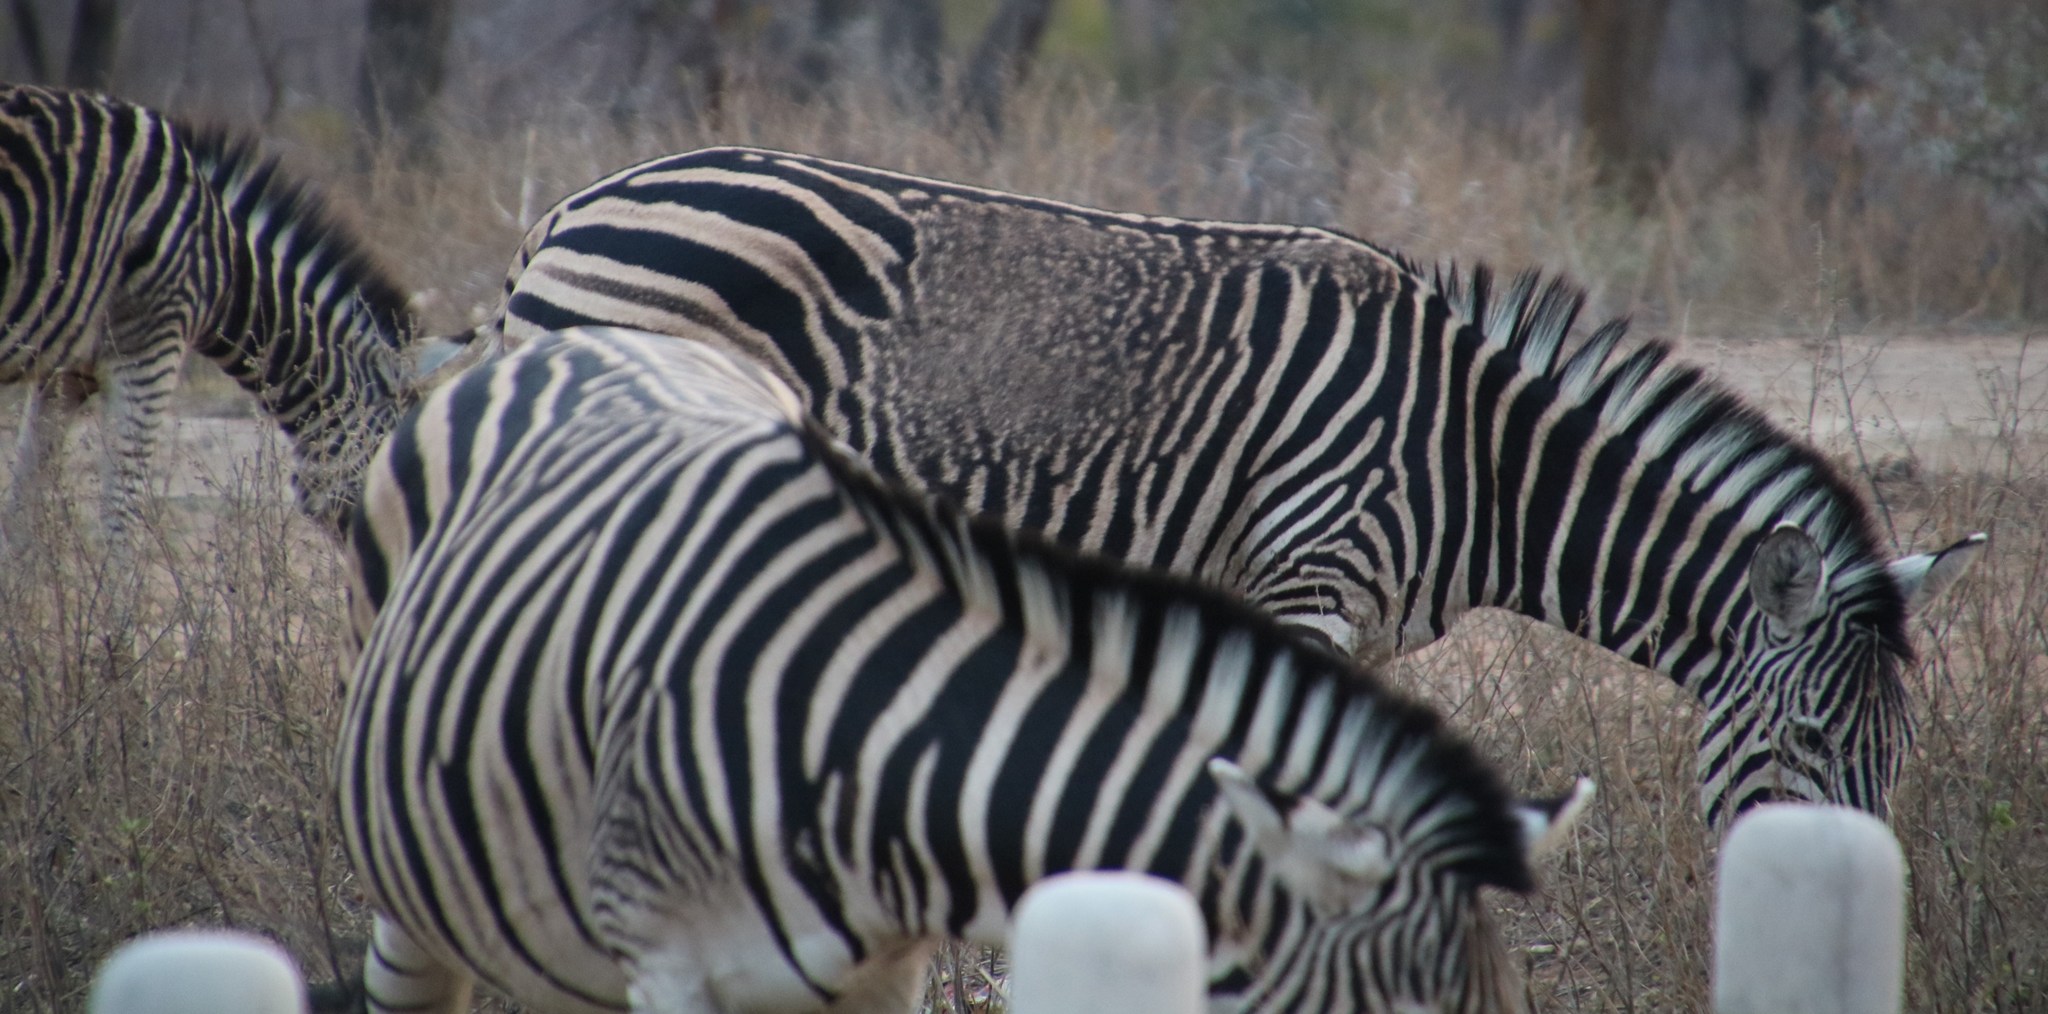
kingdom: Animalia
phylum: Chordata
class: Mammalia
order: Perissodactyla
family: Equidae
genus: Equus
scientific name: Equus quagga
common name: Plains zebra
